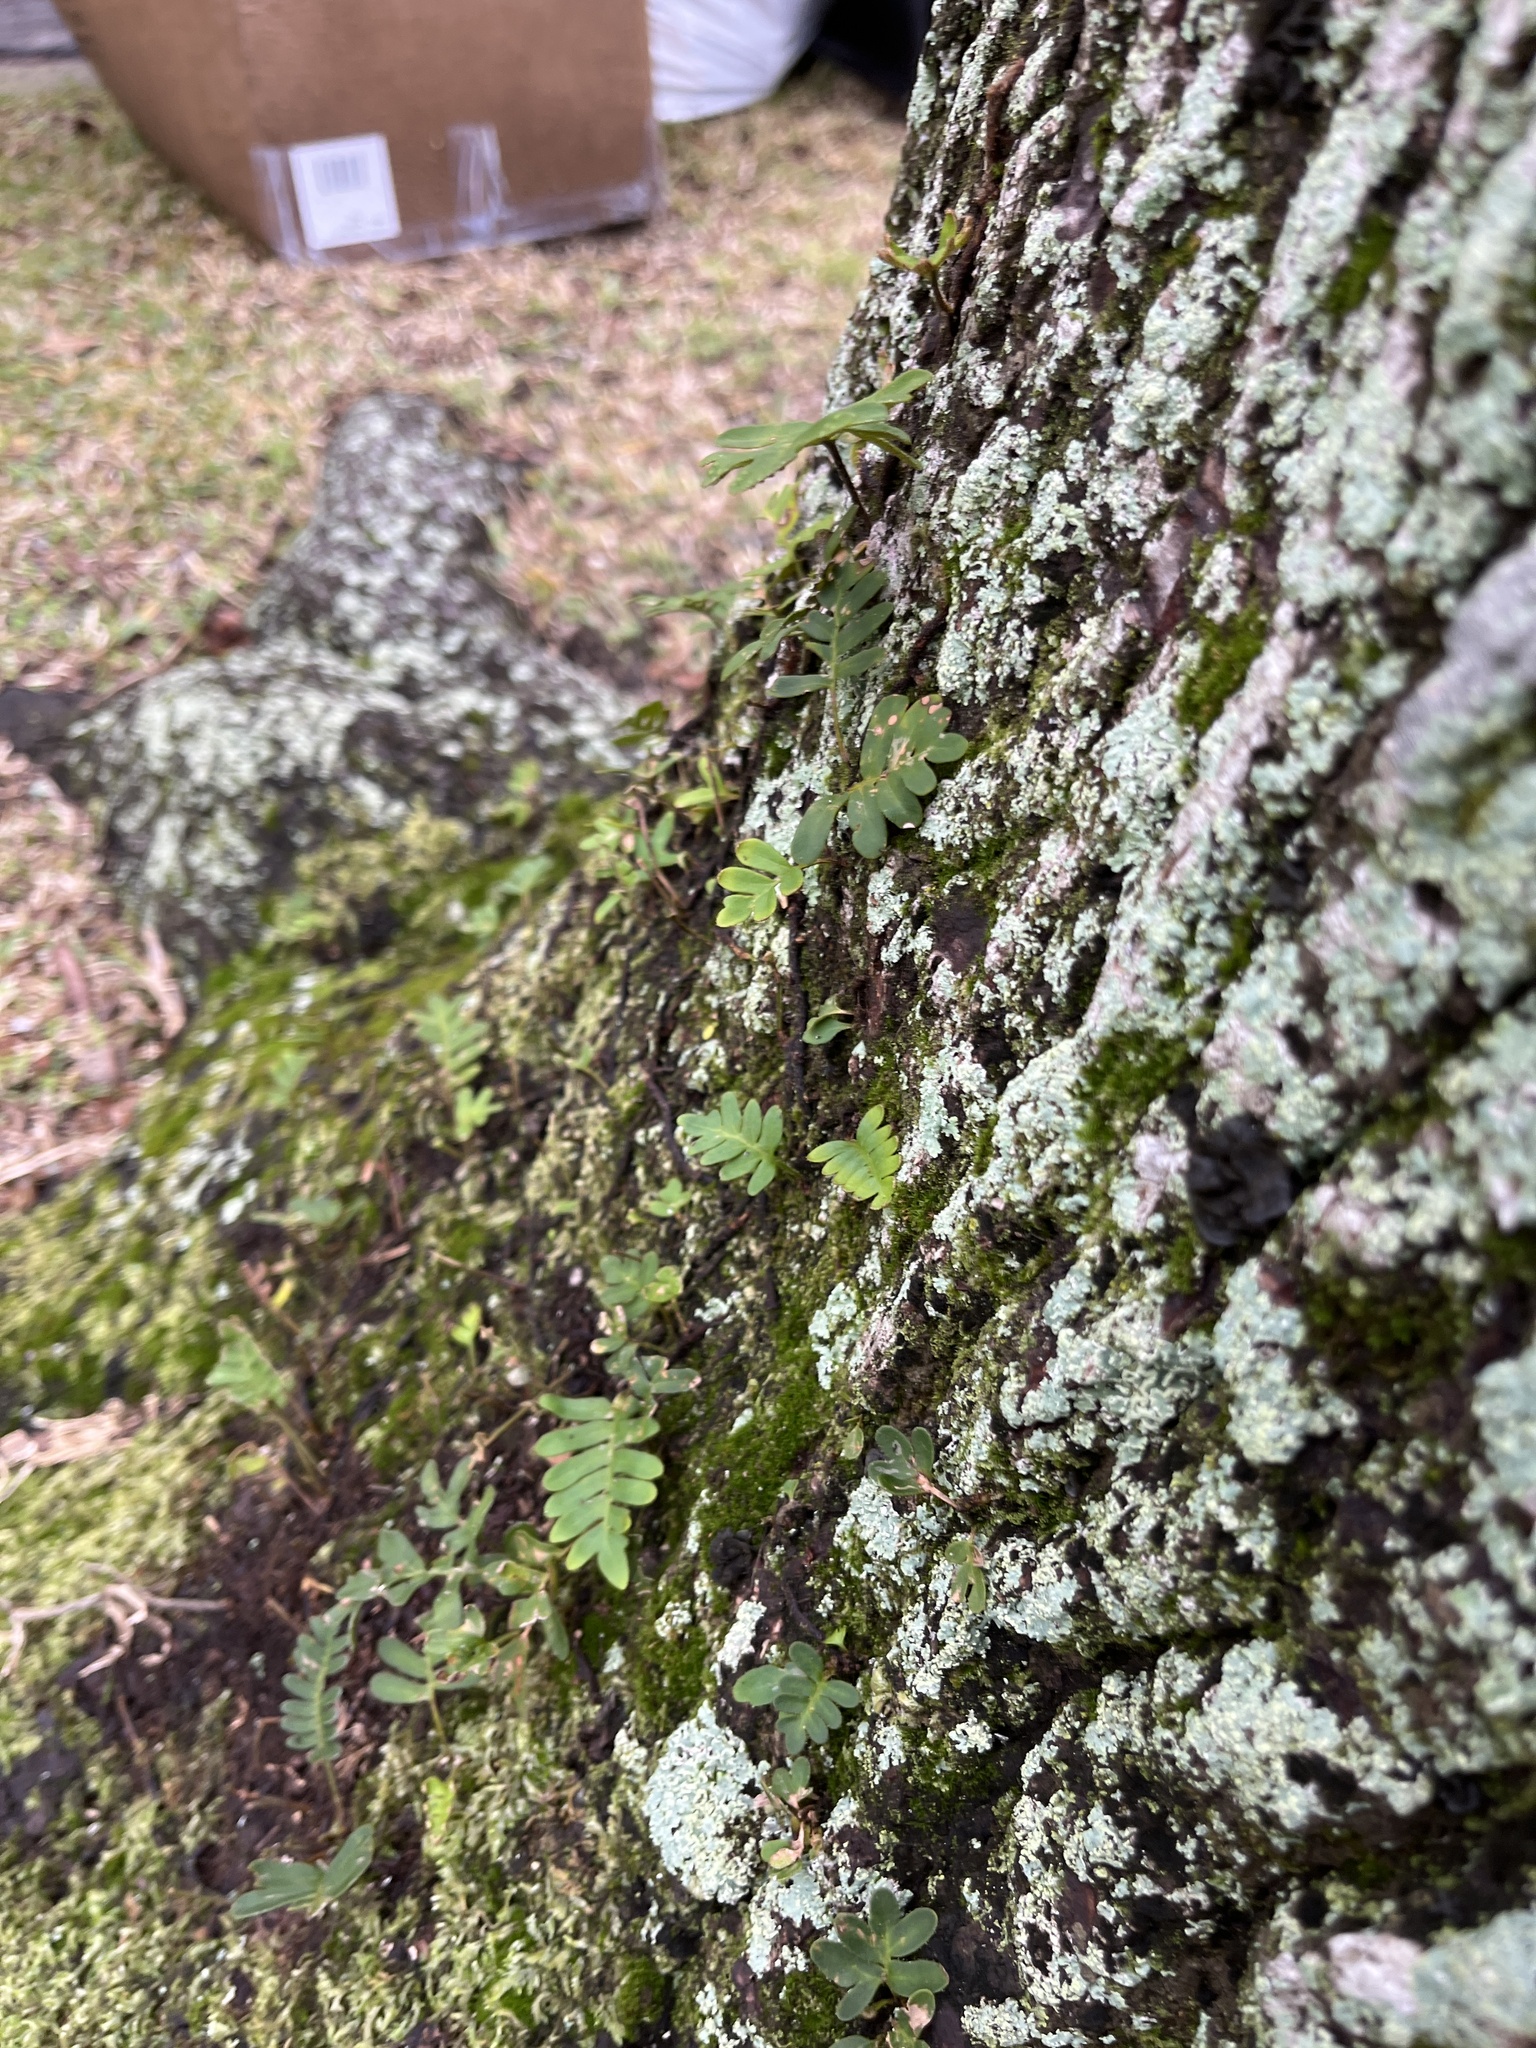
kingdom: Plantae
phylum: Tracheophyta
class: Polypodiopsida
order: Polypodiales
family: Polypodiaceae
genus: Pleopeltis
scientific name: Pleopeltis michauxiana
